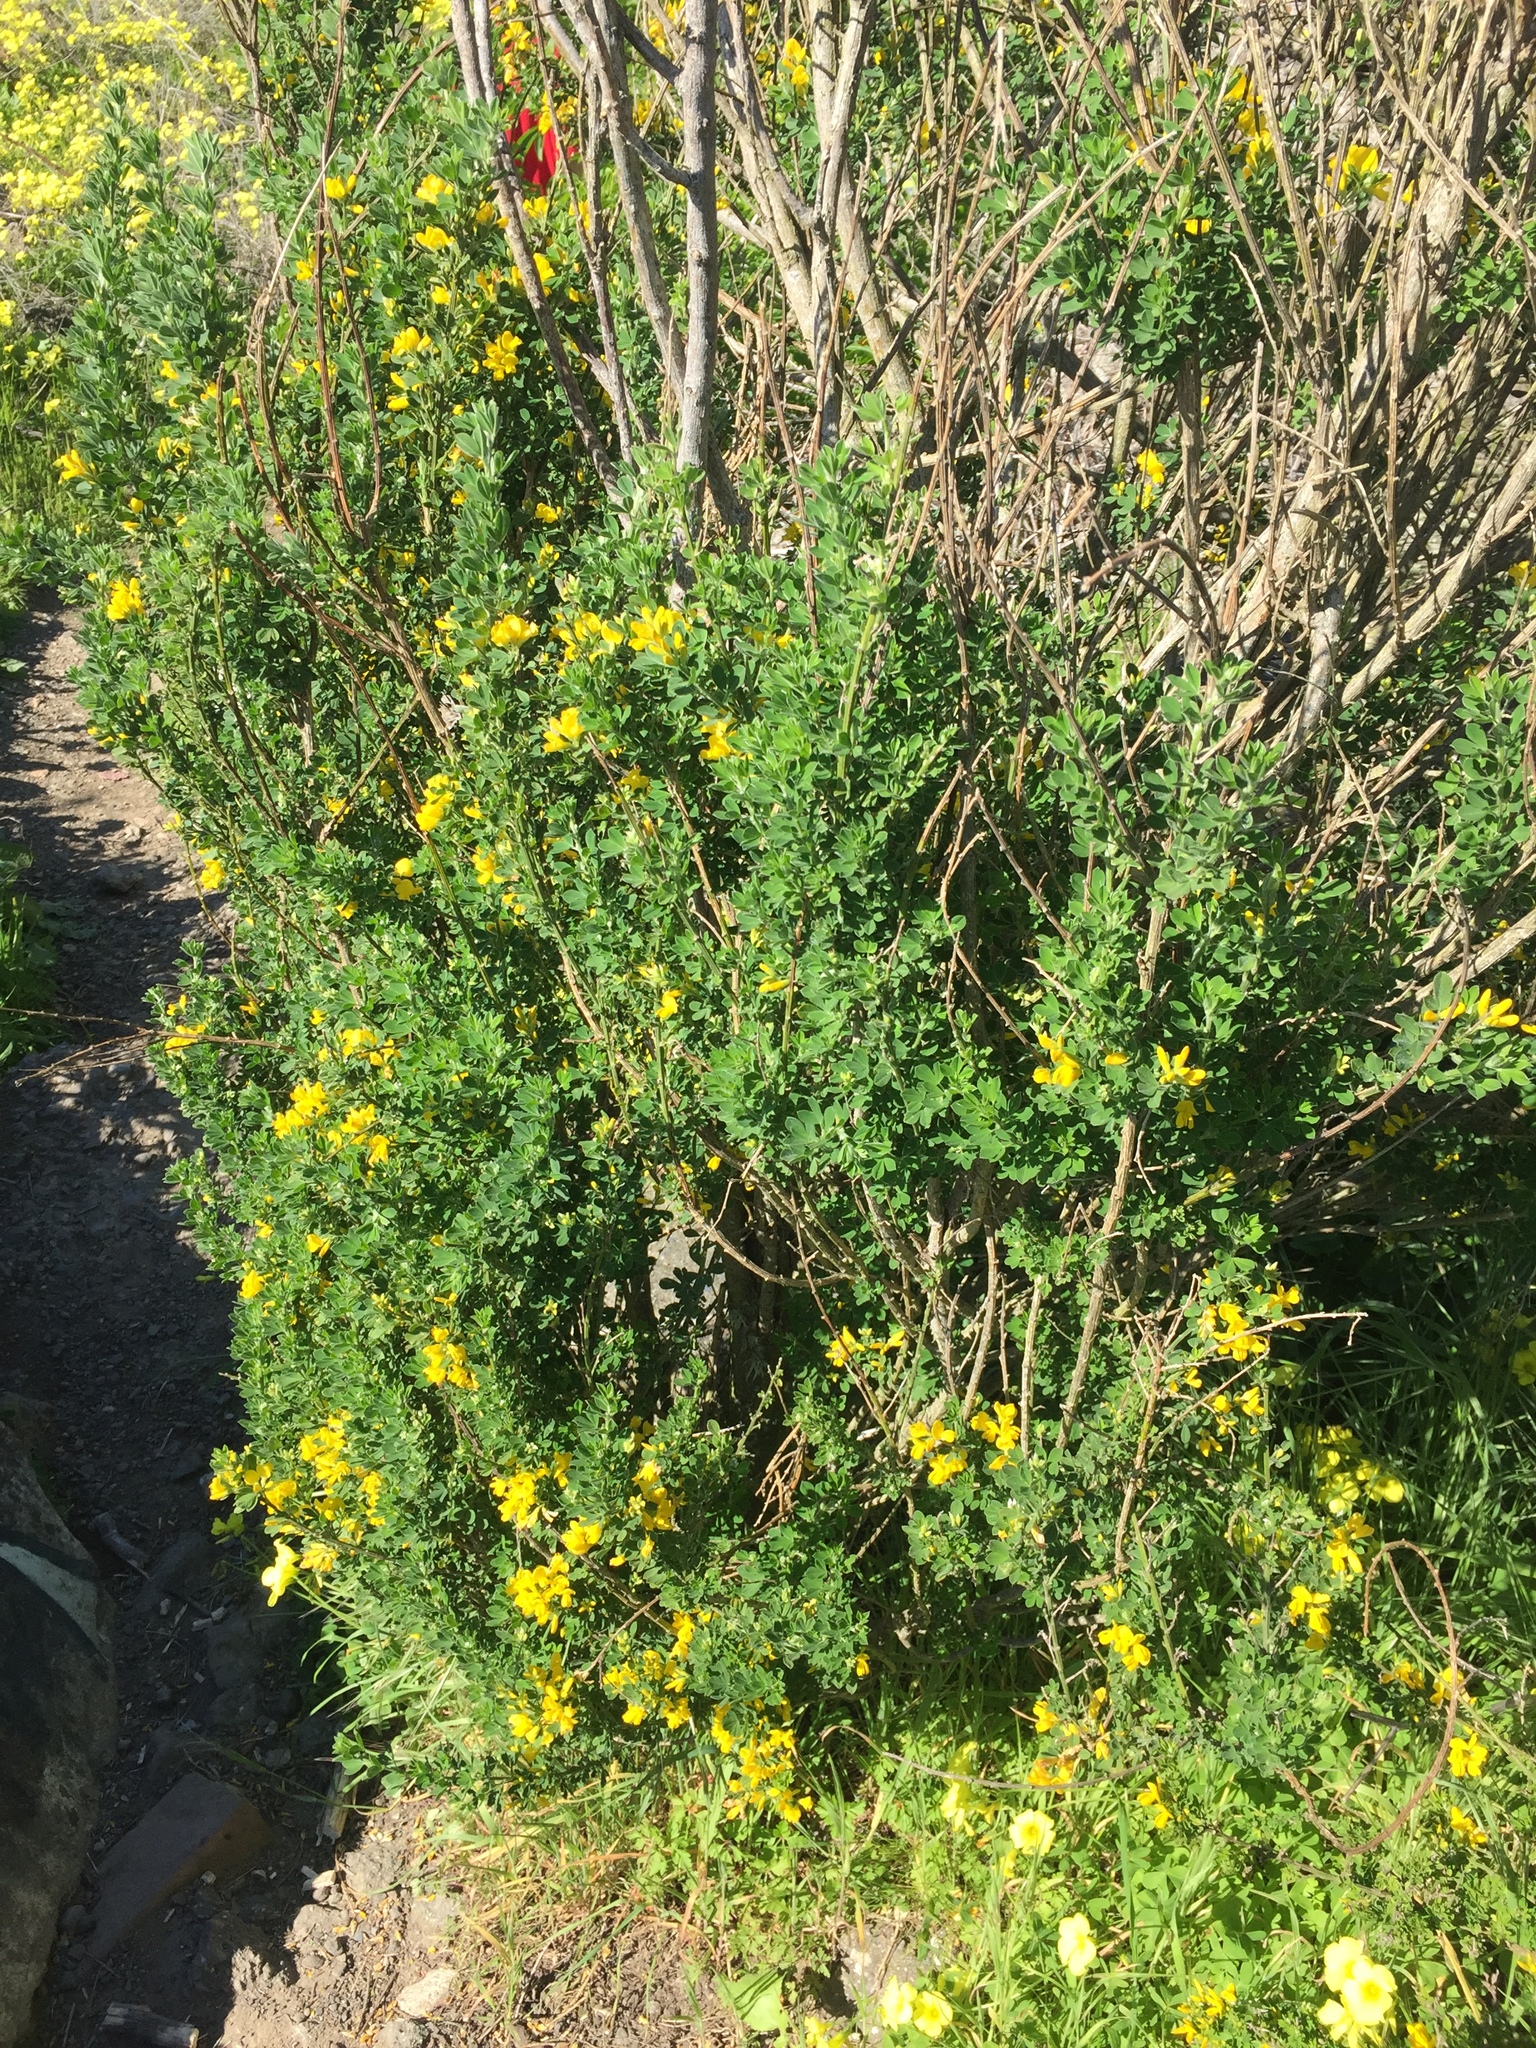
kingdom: Plantae
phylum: Tracheophyta
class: Magnoliopsida
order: Fabales
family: Fabaceae
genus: Genista
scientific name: Genista monspessulana
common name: Montpellier broom
